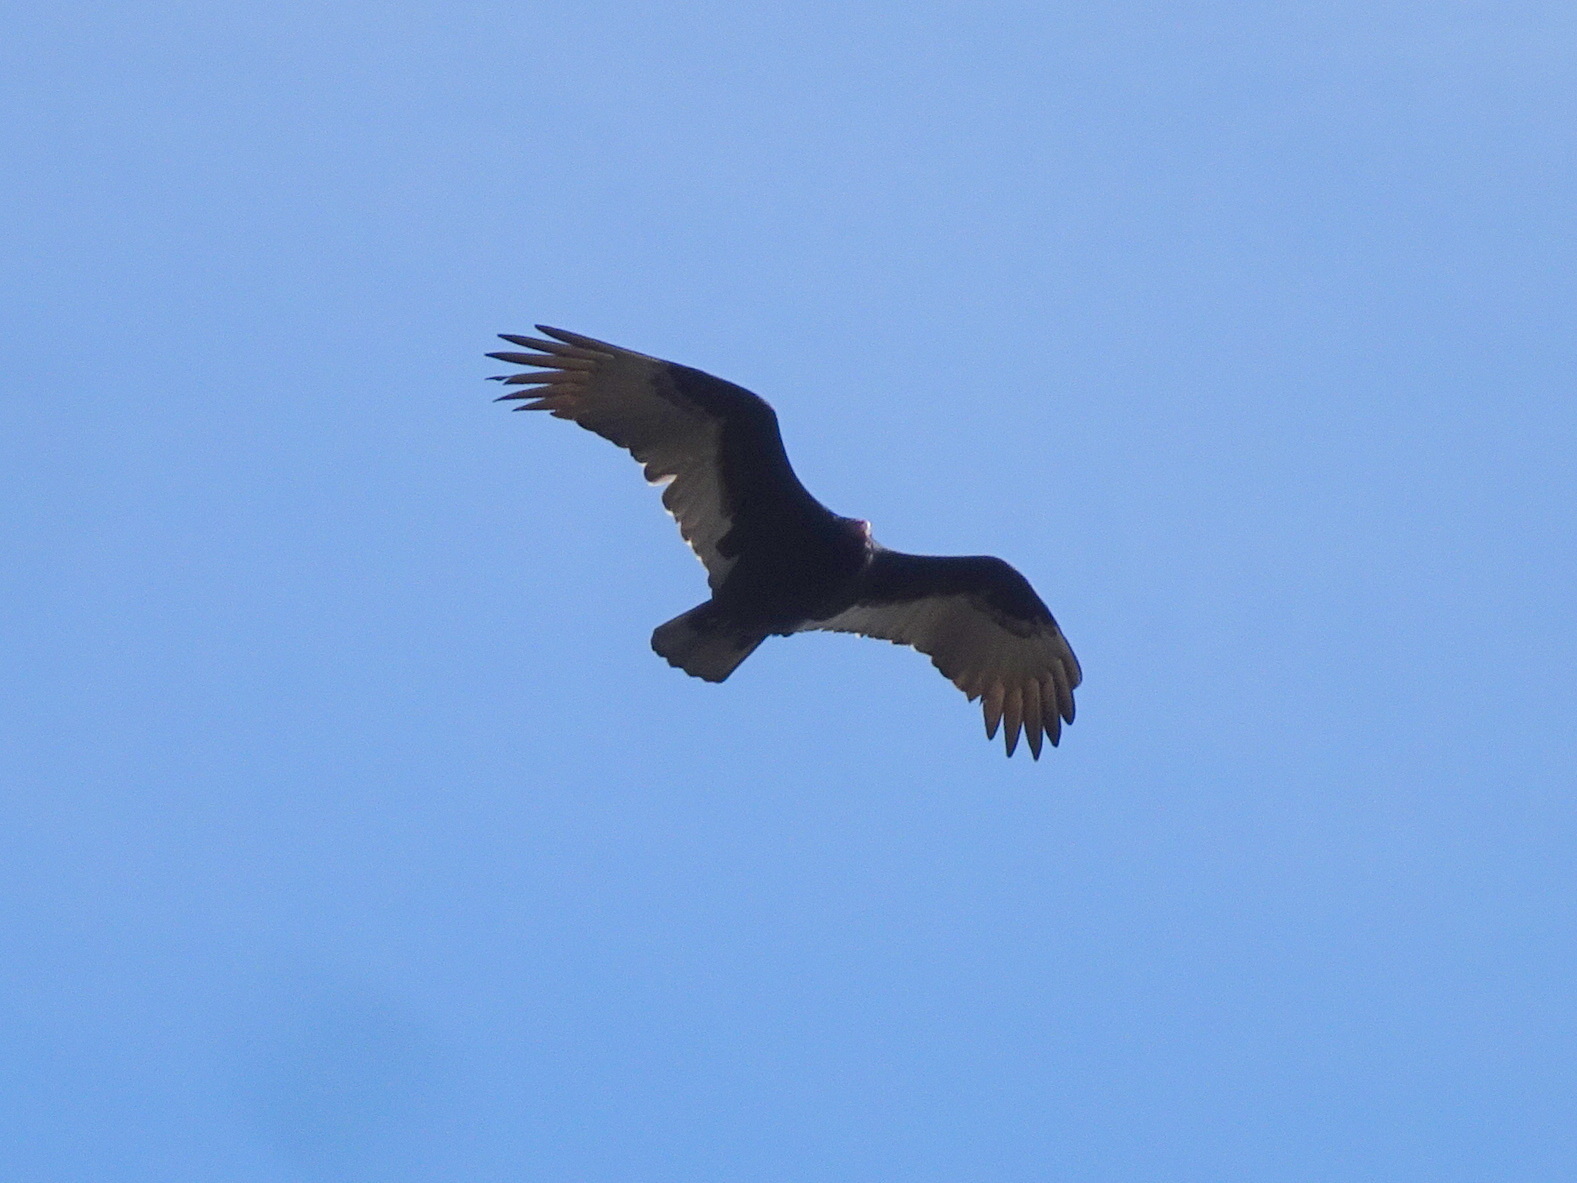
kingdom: Animalia
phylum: Chordata
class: Aves
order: Accipitriformes
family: Cathartidae
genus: Cathartes
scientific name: Cathartes aura
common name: Turkey vulture
